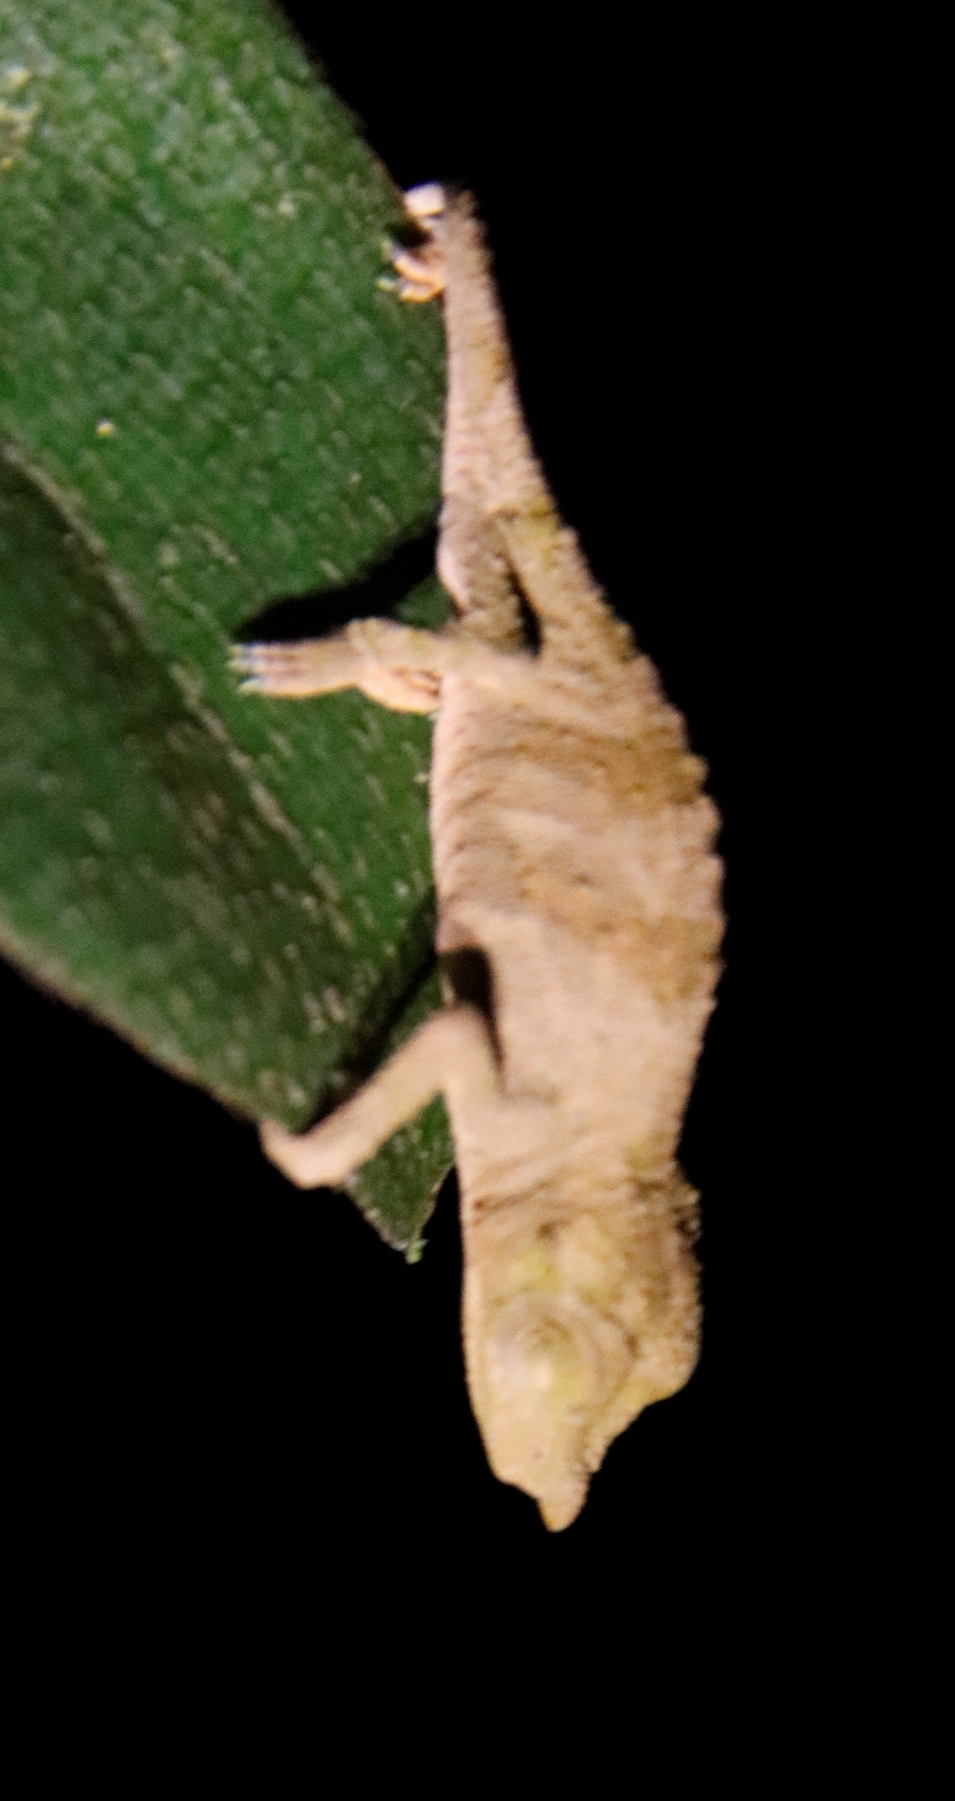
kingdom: Animalia
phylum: Chordata
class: Squamata
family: Chamaeleonidae
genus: Rhampholeon
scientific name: Rhampholeon marshalli
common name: Marshall's african leaf chameleon
